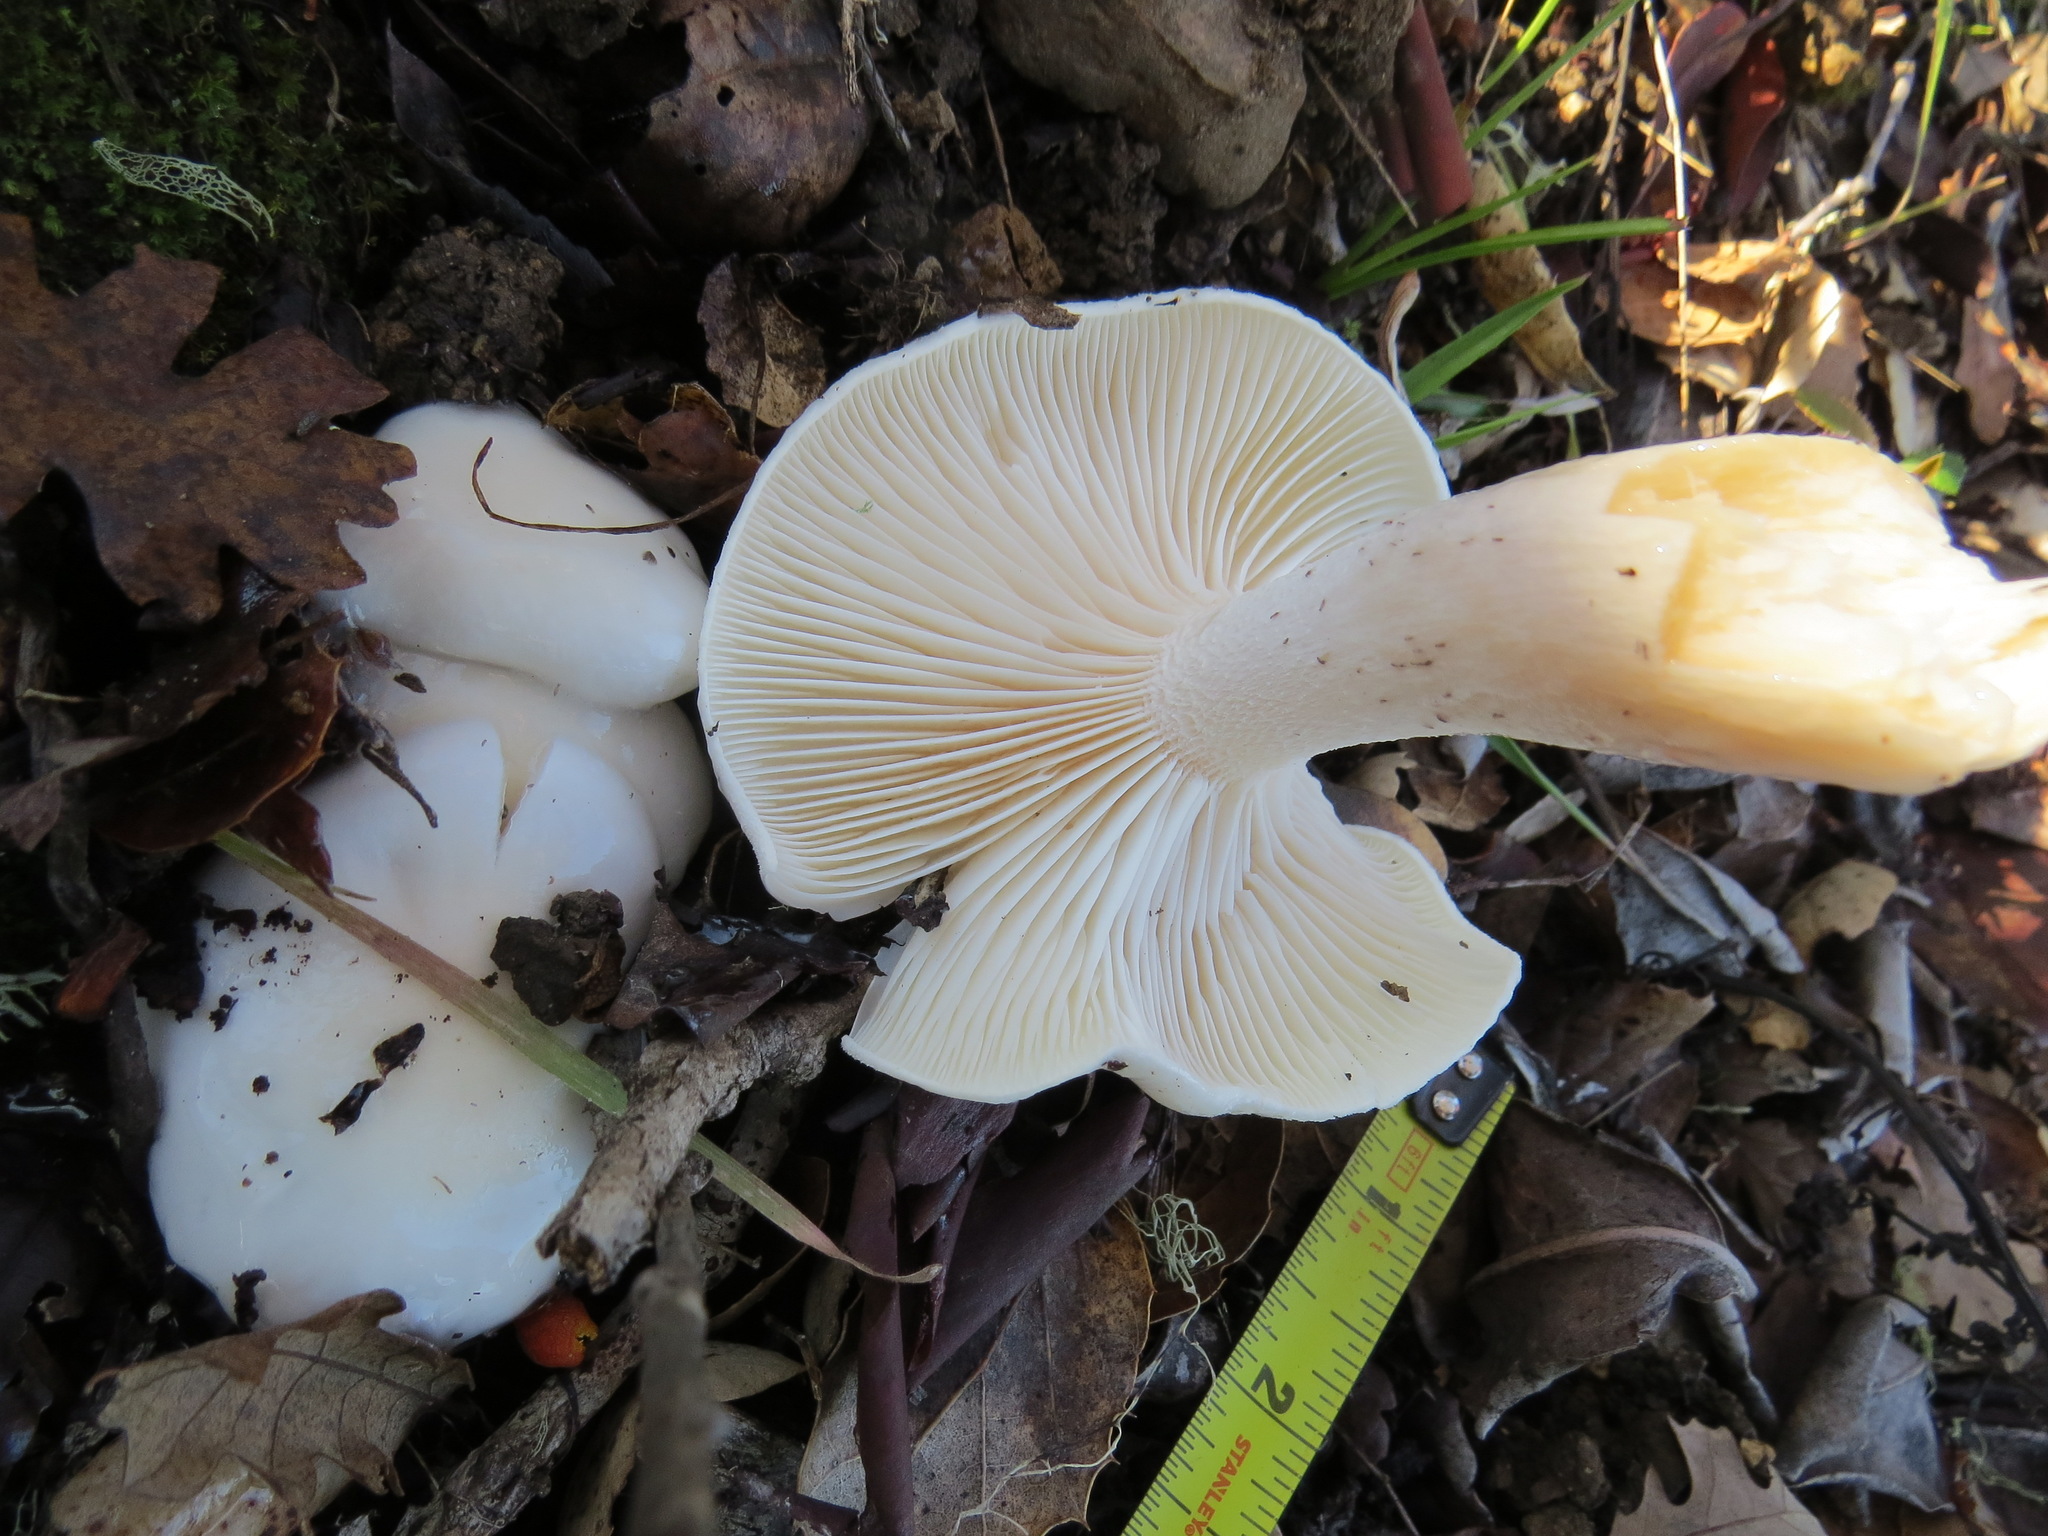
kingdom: Fungi
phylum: Basidiomycota
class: Agaricomycetes
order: Agaricales
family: Hygrophoraceae
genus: Hygrophorus
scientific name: Hygrophorus eburneus
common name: Ivory wax-cap
